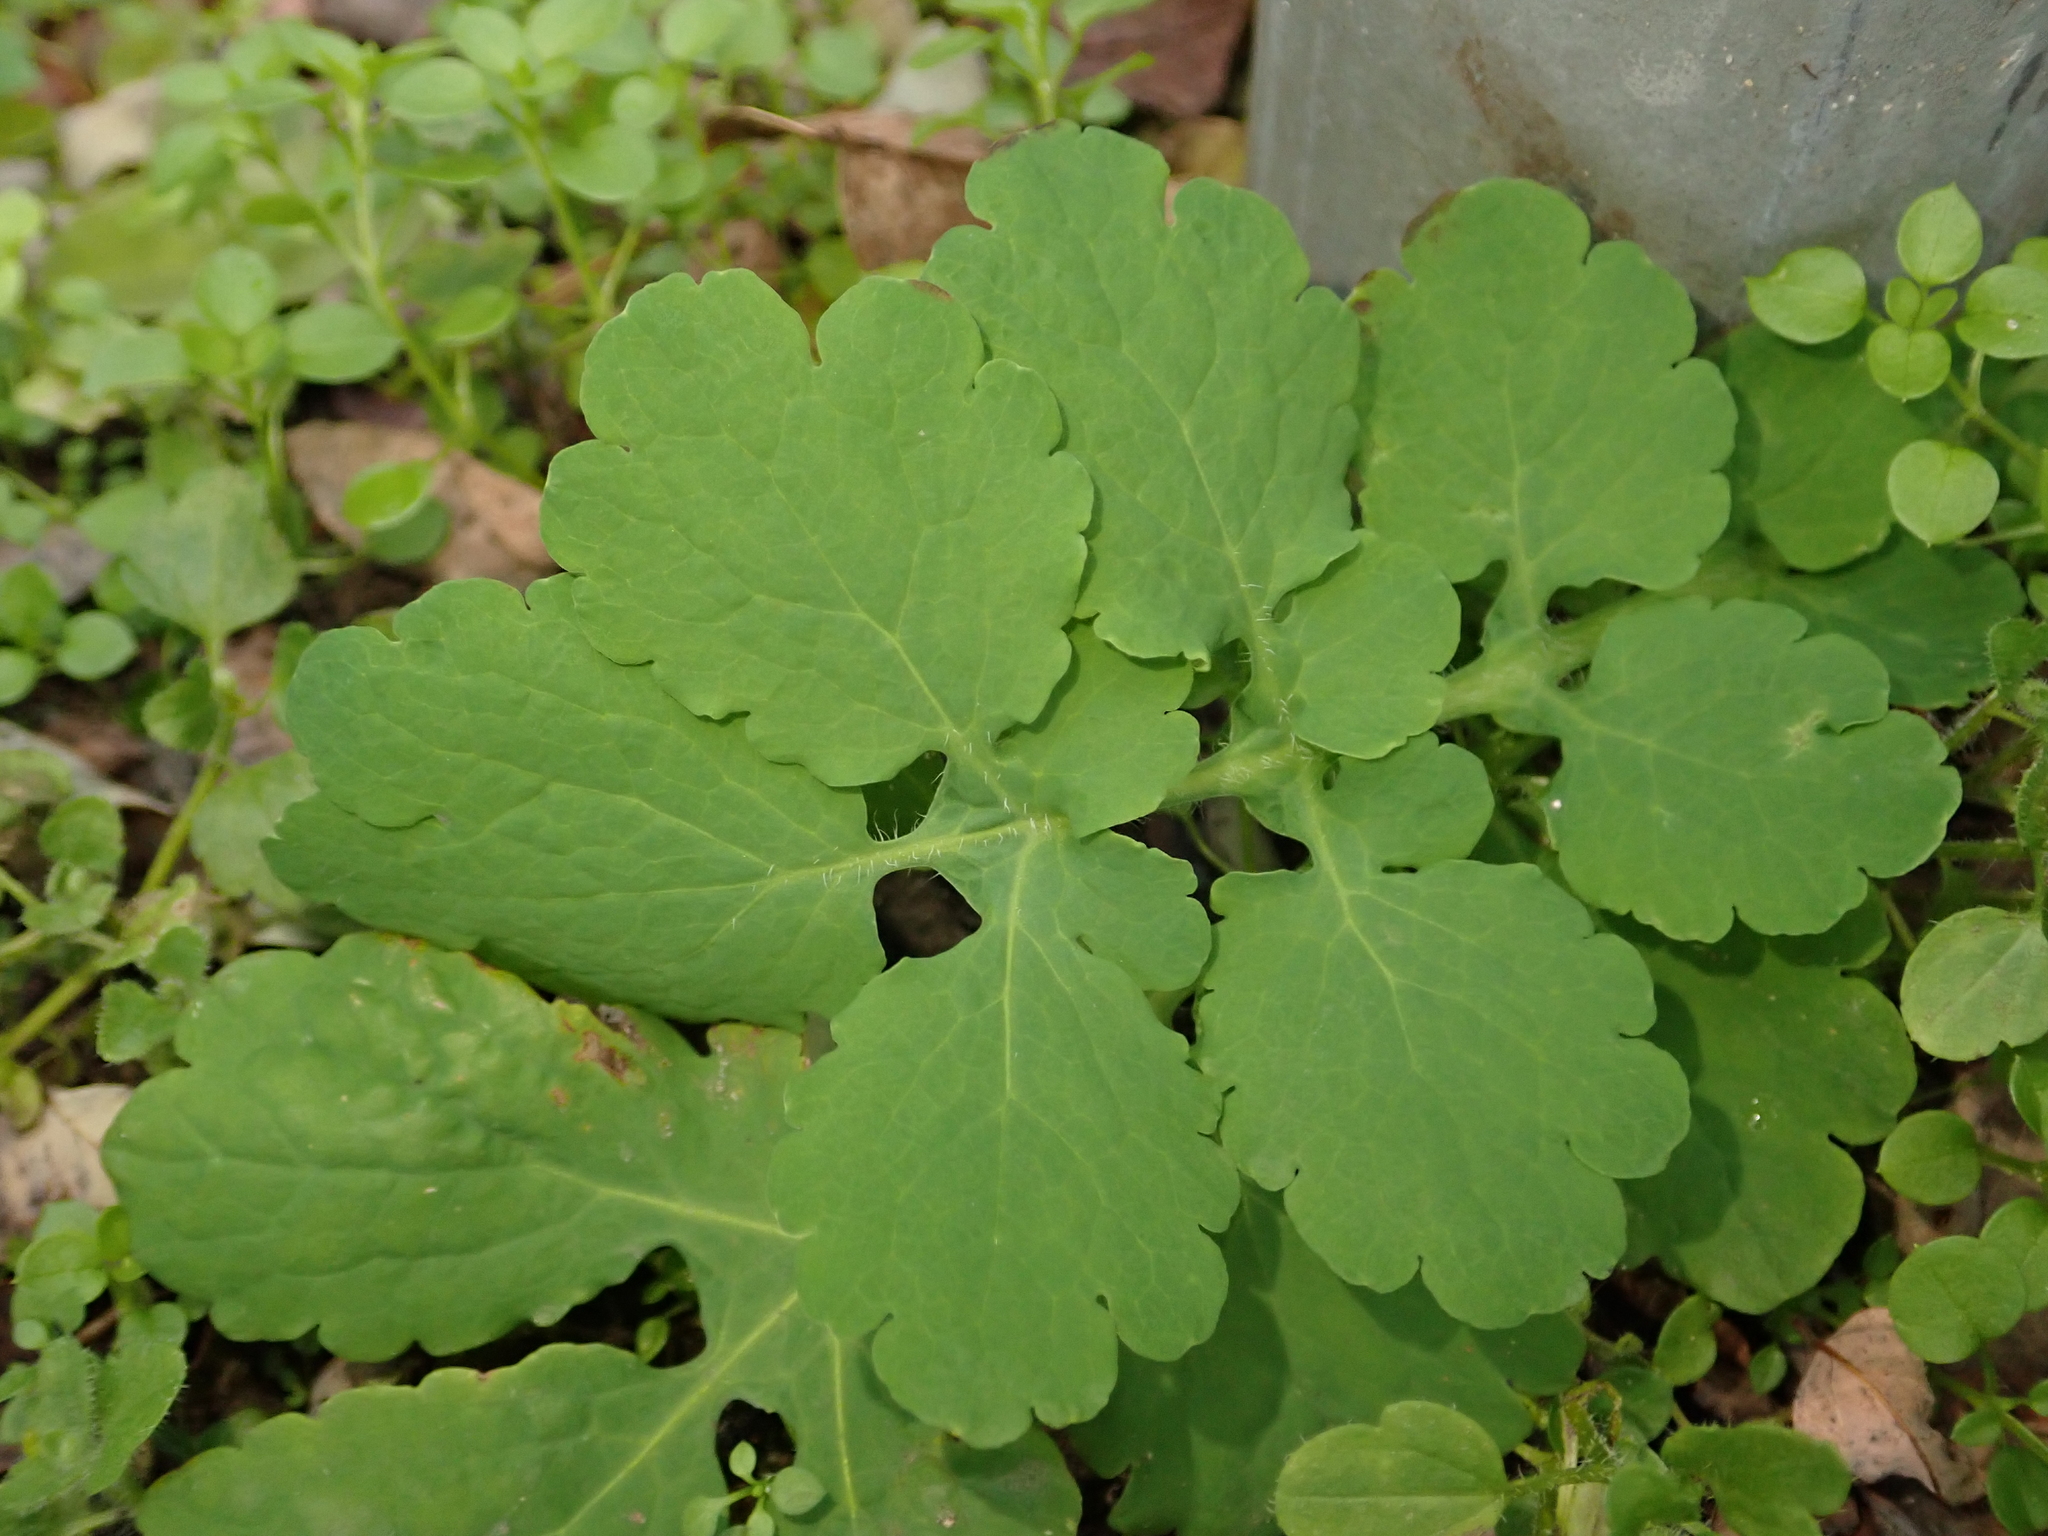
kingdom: Plantae
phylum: Tracheophyta
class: Magnoliopsida
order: Ranunculales
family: Papaveraceae
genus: Chelidonium
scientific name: Chelidonium majus
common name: Greater celandine
